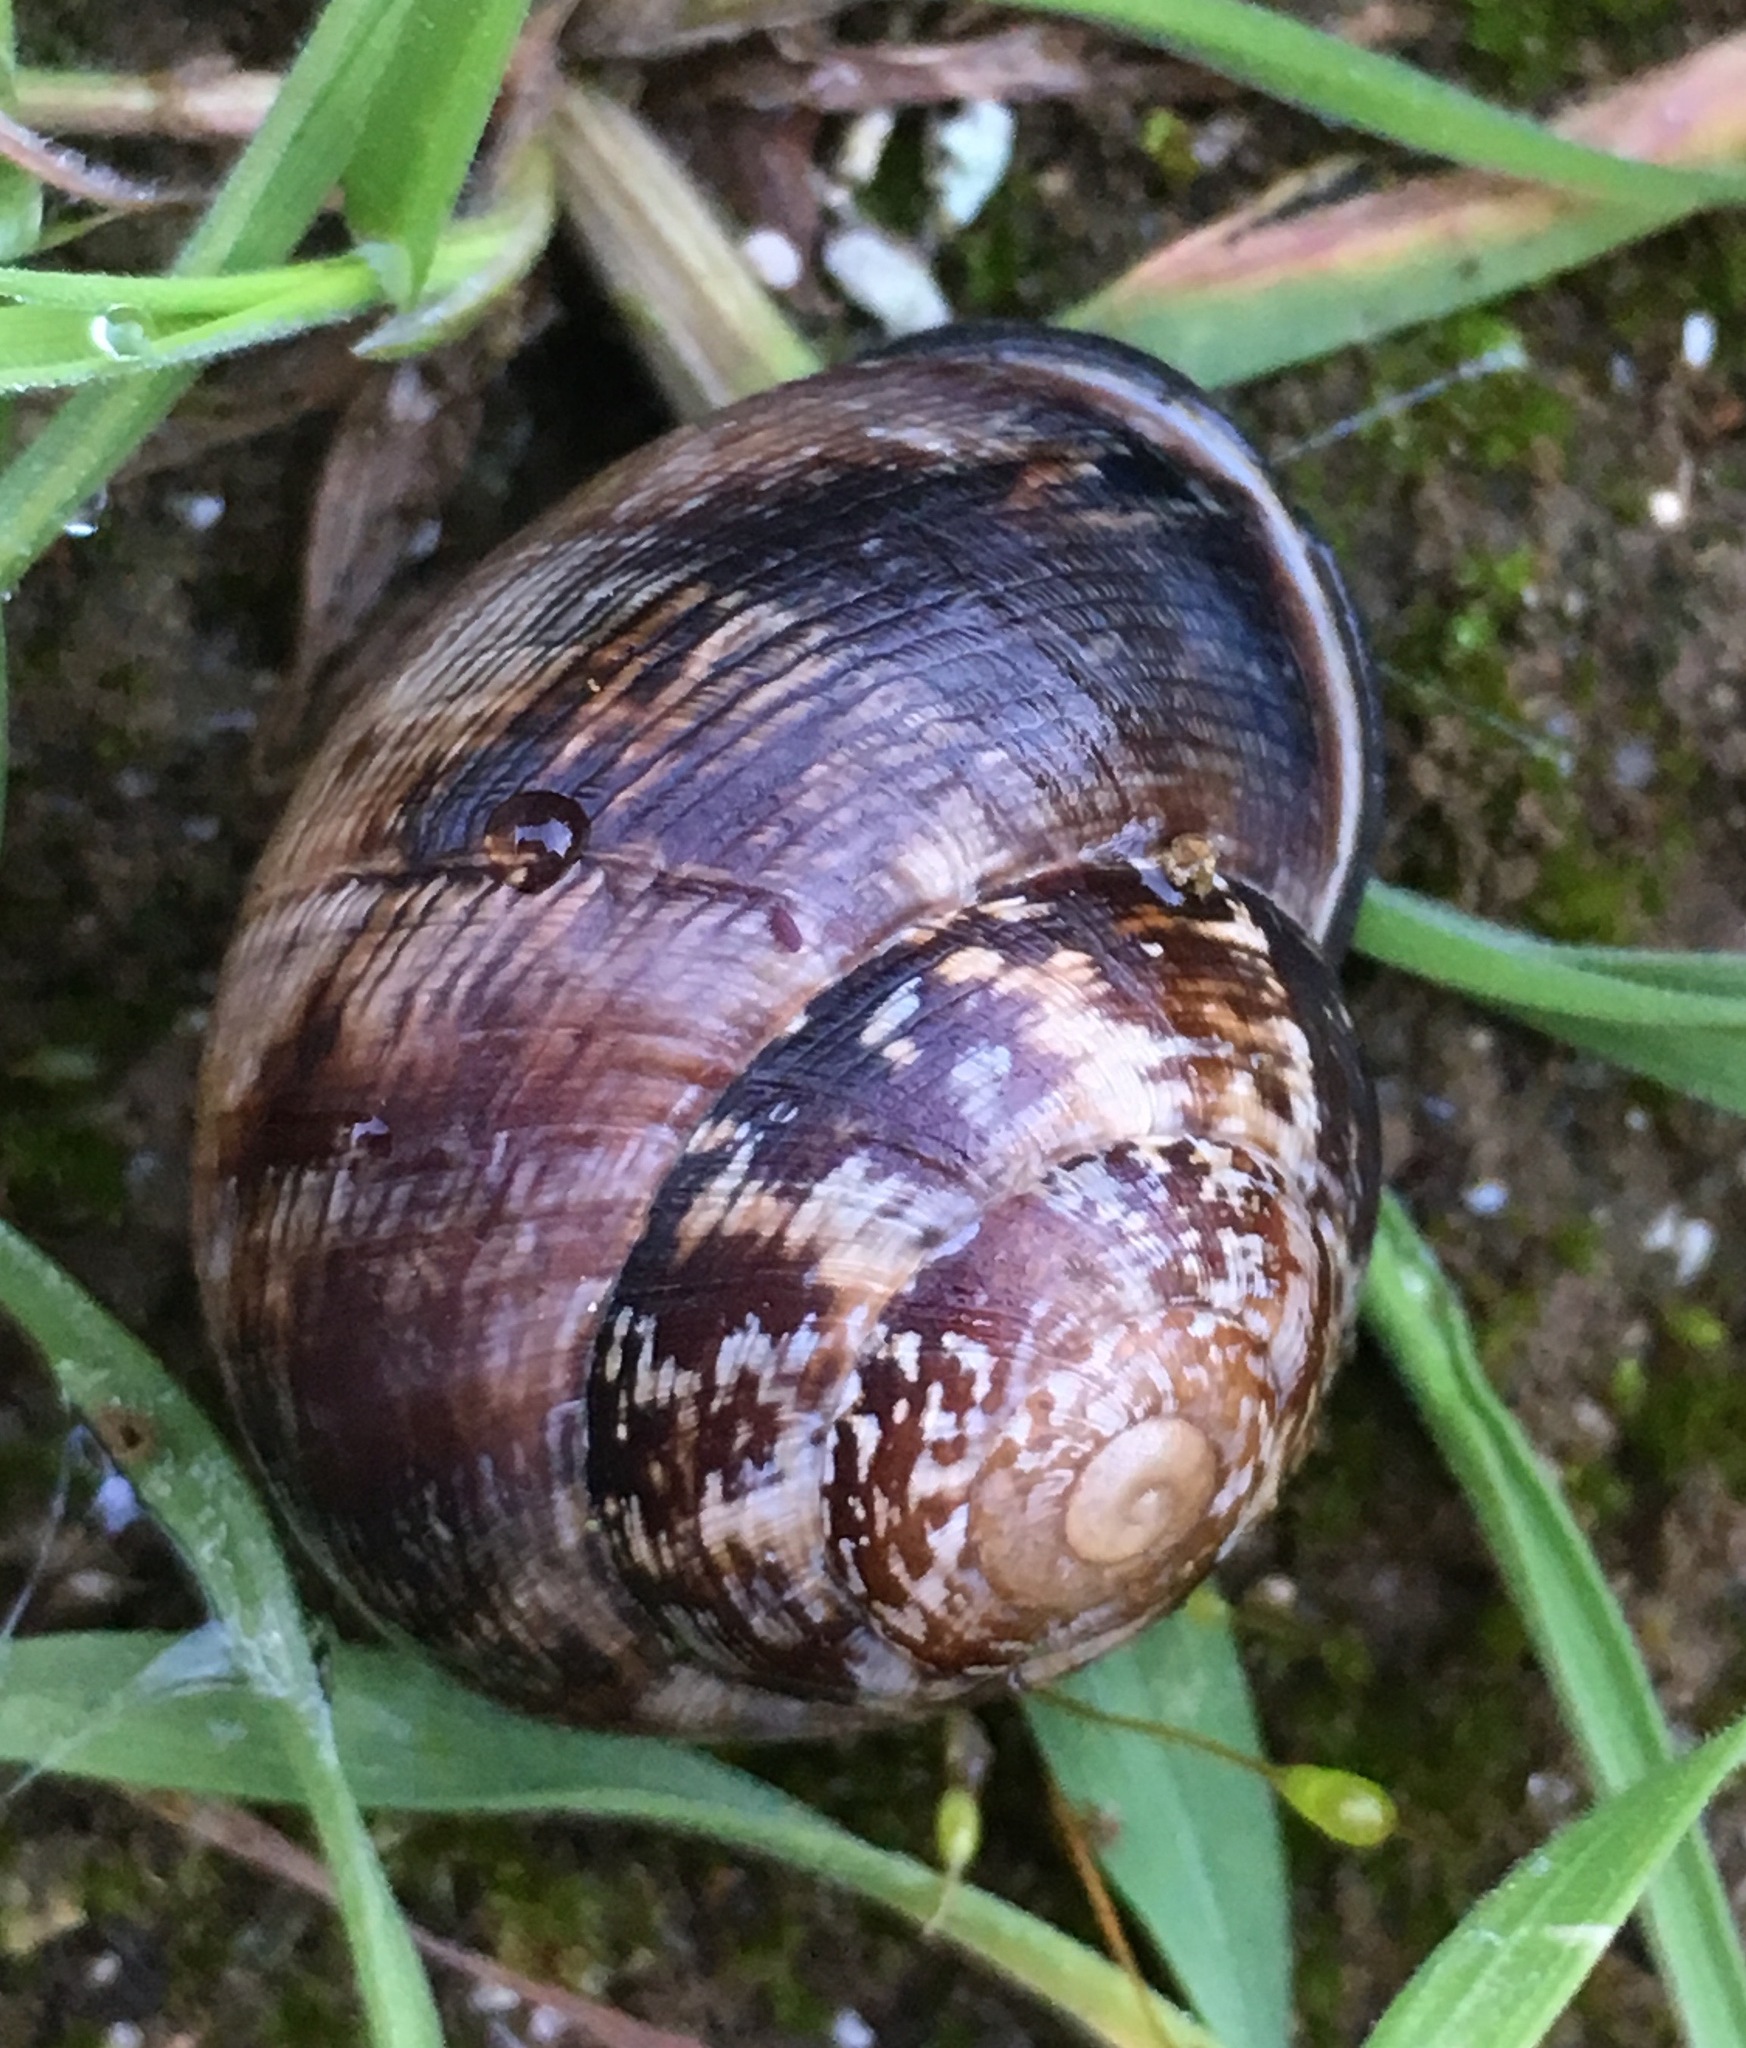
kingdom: Animalia
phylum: Mollusca
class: Gastropoda
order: Stylommatophora
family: Xanthonychidae
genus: Xerarionta
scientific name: Xerarionta tryoni
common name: Bicolor cactus snail
